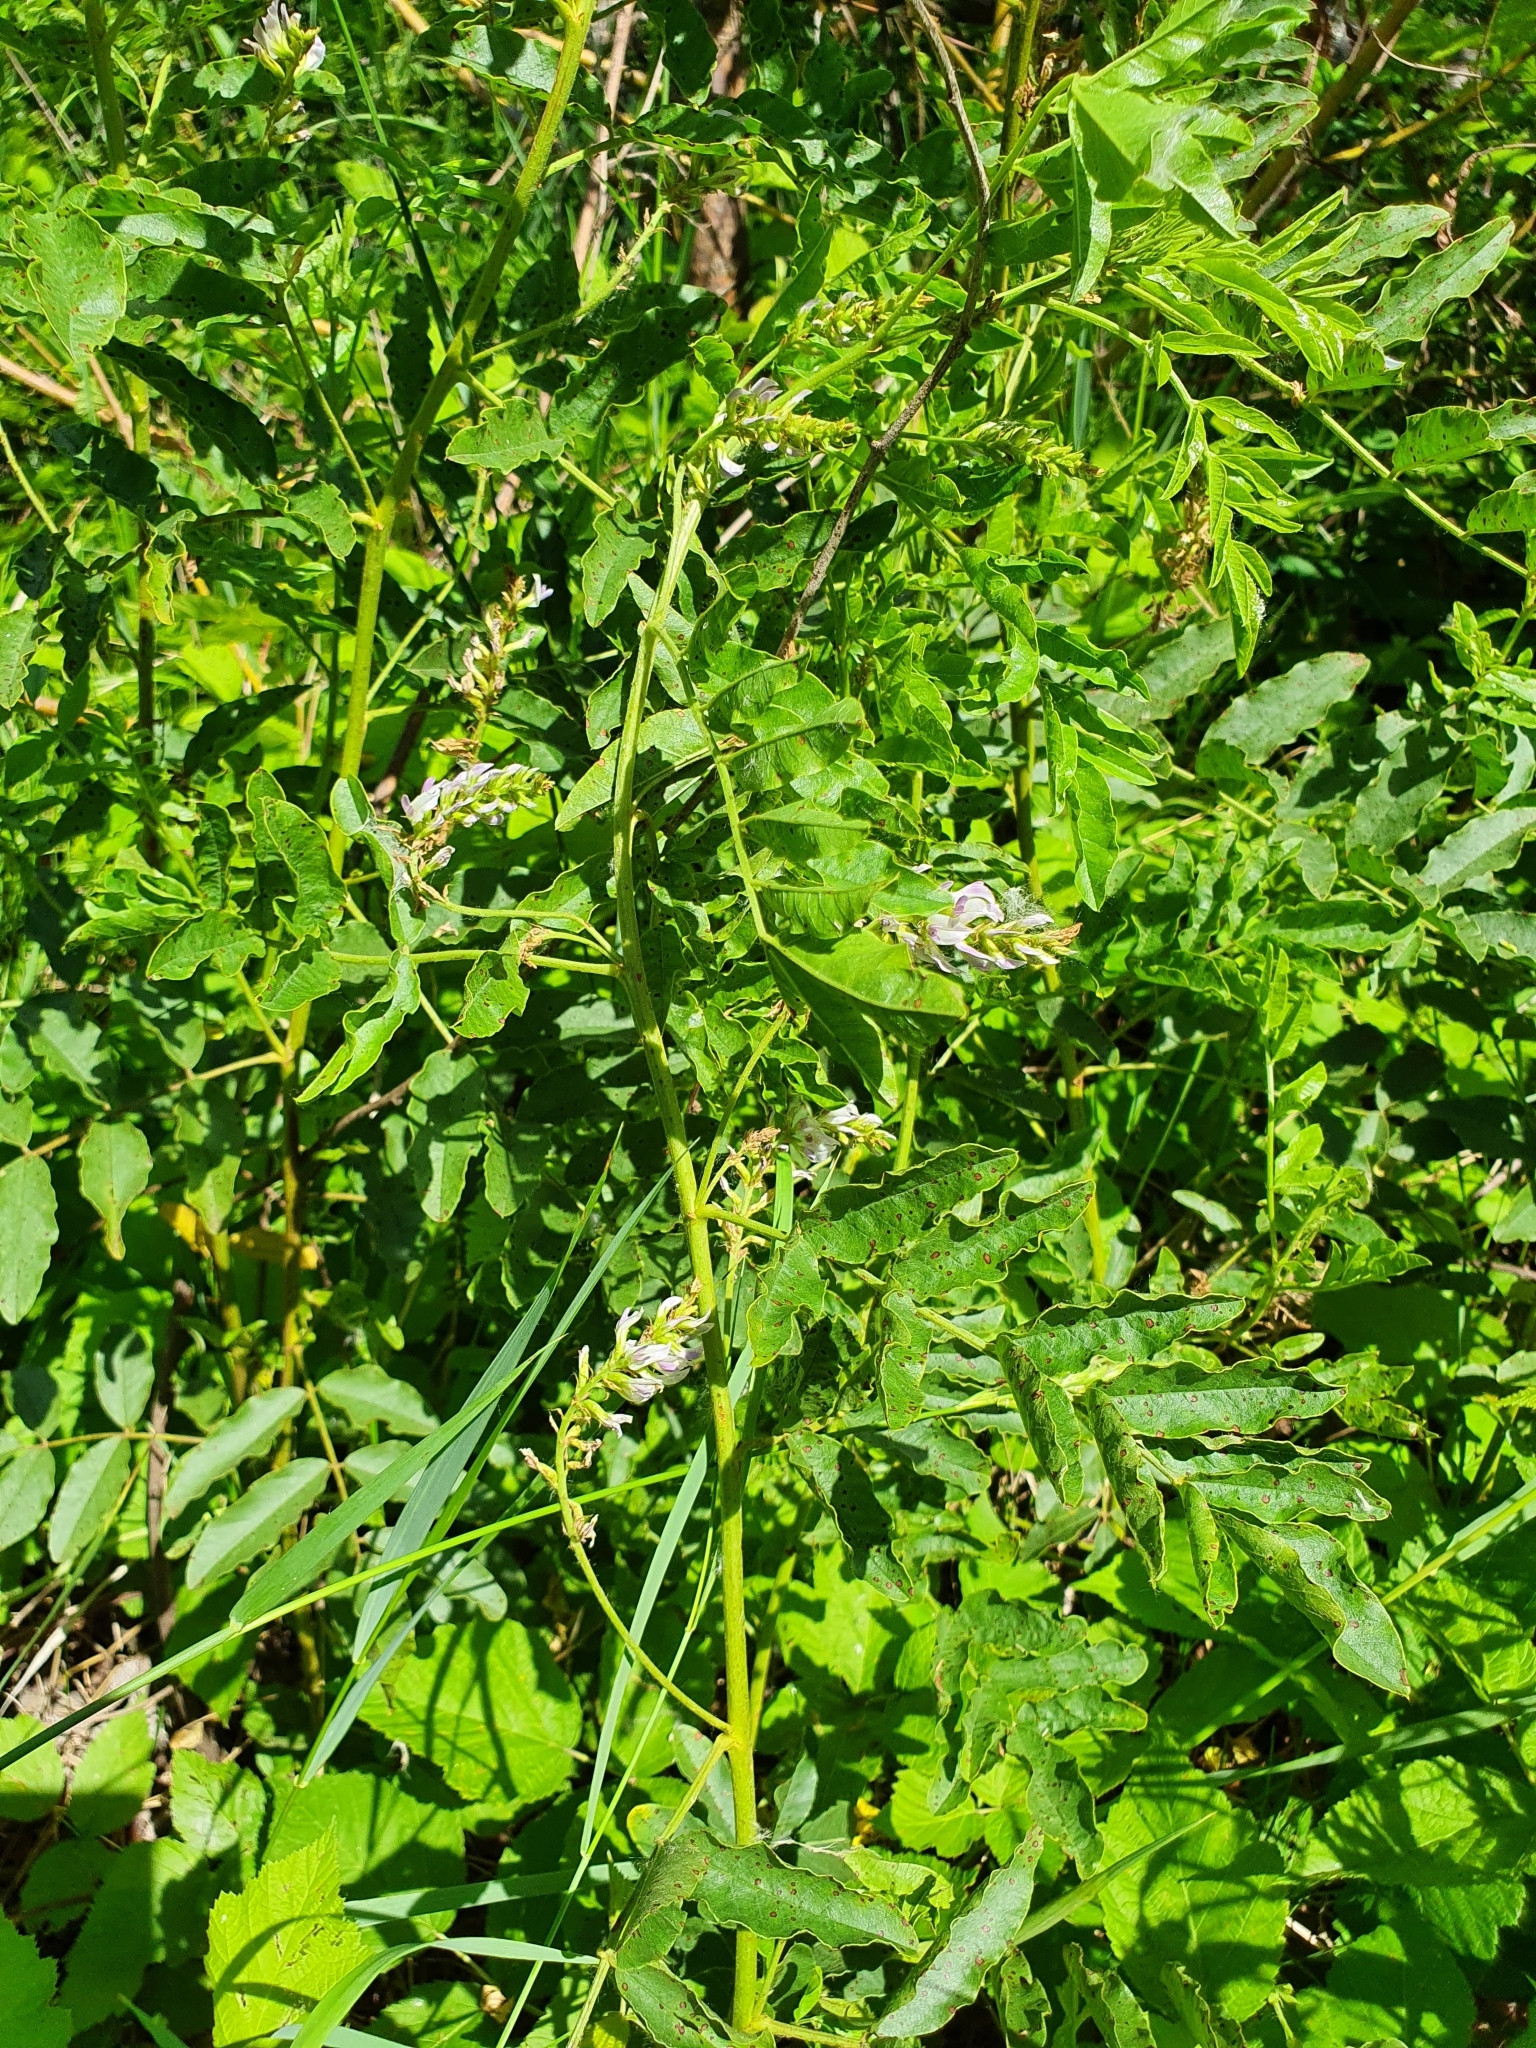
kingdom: Plantae
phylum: Tracheophyta
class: Magnoliopsida
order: Fabales
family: Fabaceae
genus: Glycyrrhiza
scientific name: Glycyrrhiza glabra
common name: Liquorice
